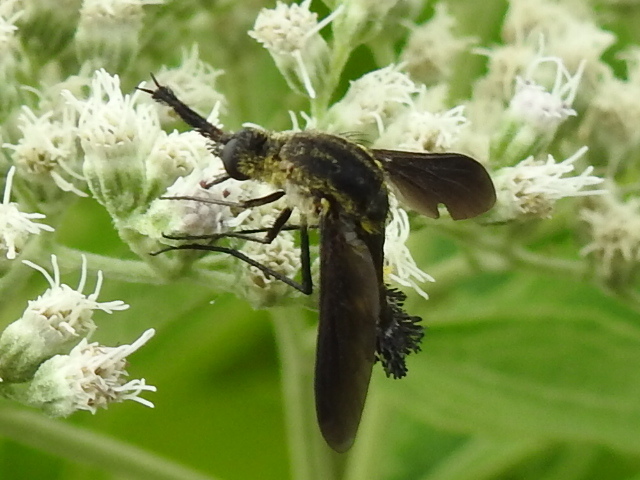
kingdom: Animalia
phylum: Arthropoda
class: Insecta
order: Diptera
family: Bombyliidae
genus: Lepidophora
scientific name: Lepidophora lepidocera
